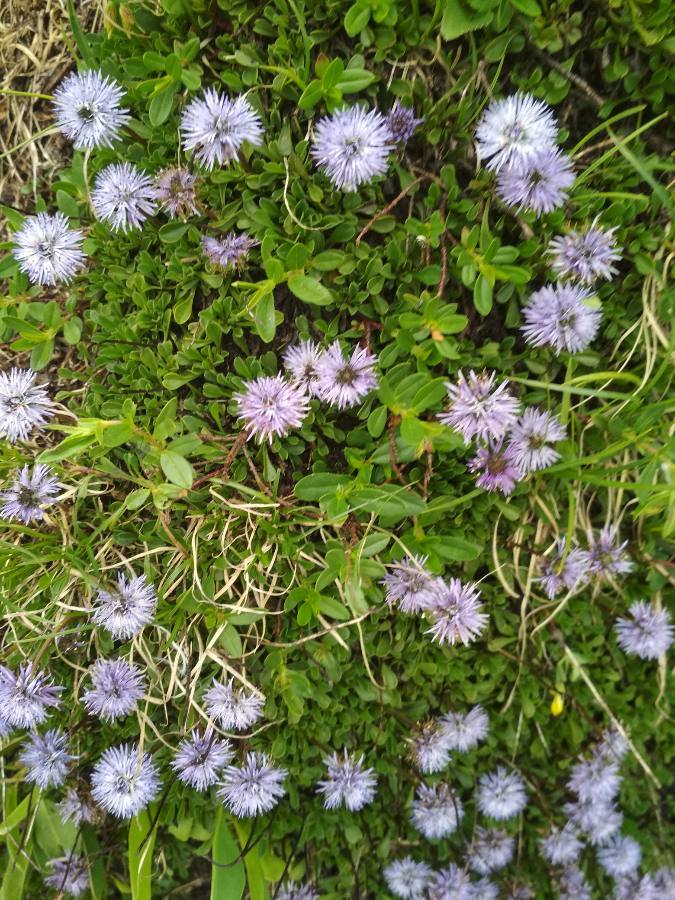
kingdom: Plantae
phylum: Tracheophyta
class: Magnoliopsida
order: Lamiales
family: Plantaginaceae
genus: Globularia
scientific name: Globularia cordifolia
